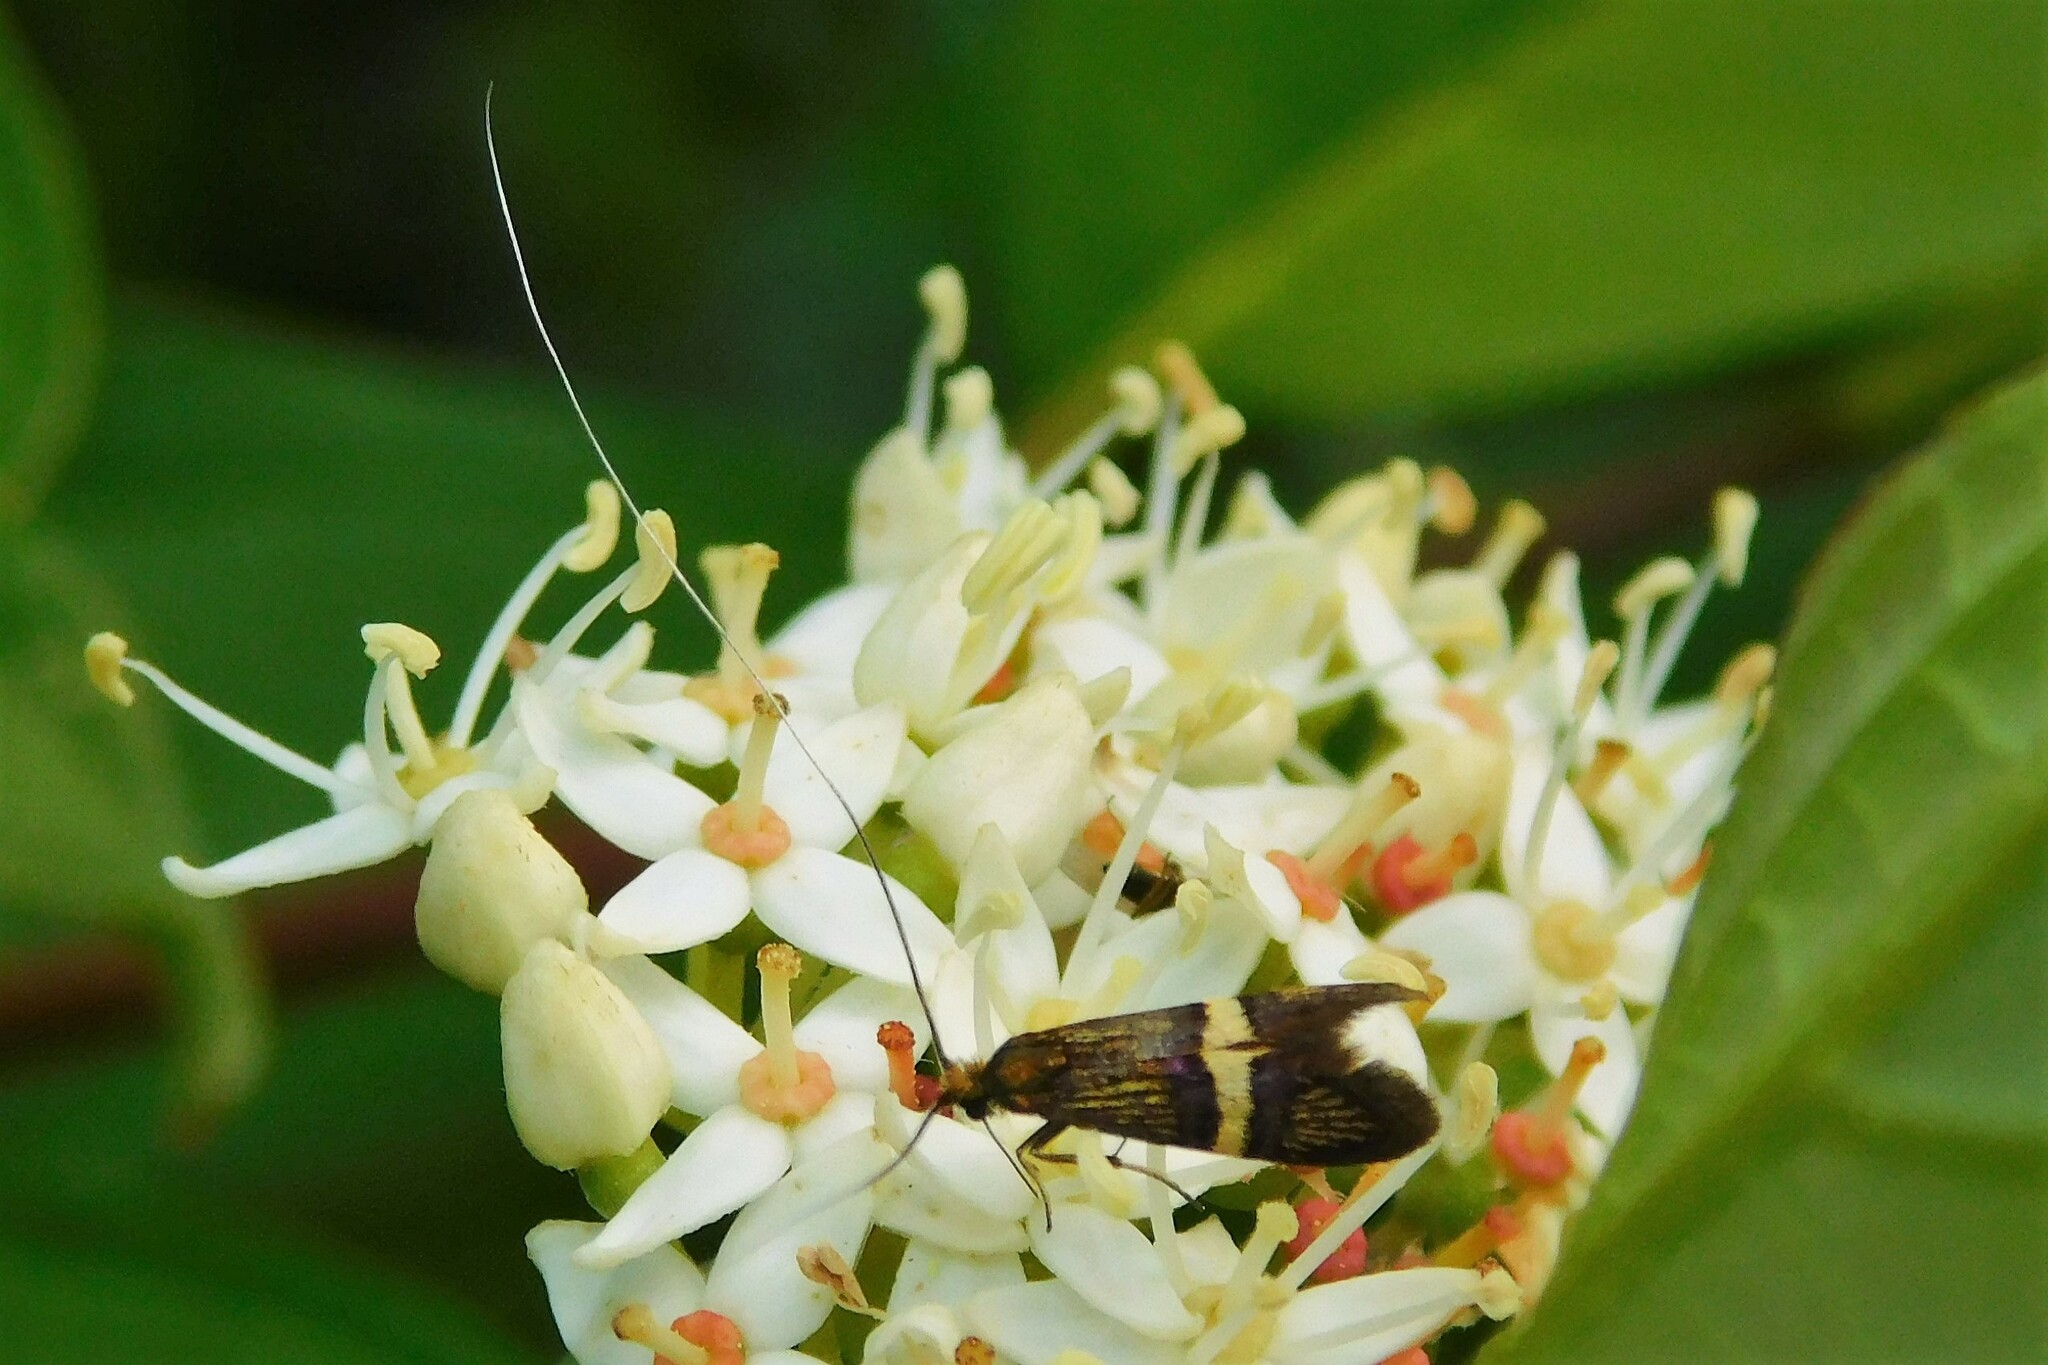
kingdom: Animalia
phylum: Arthropoda
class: Insecta
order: Lepidoptera
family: Adelidae
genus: Adela
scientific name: Adela croesella
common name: Small barred long-horn
